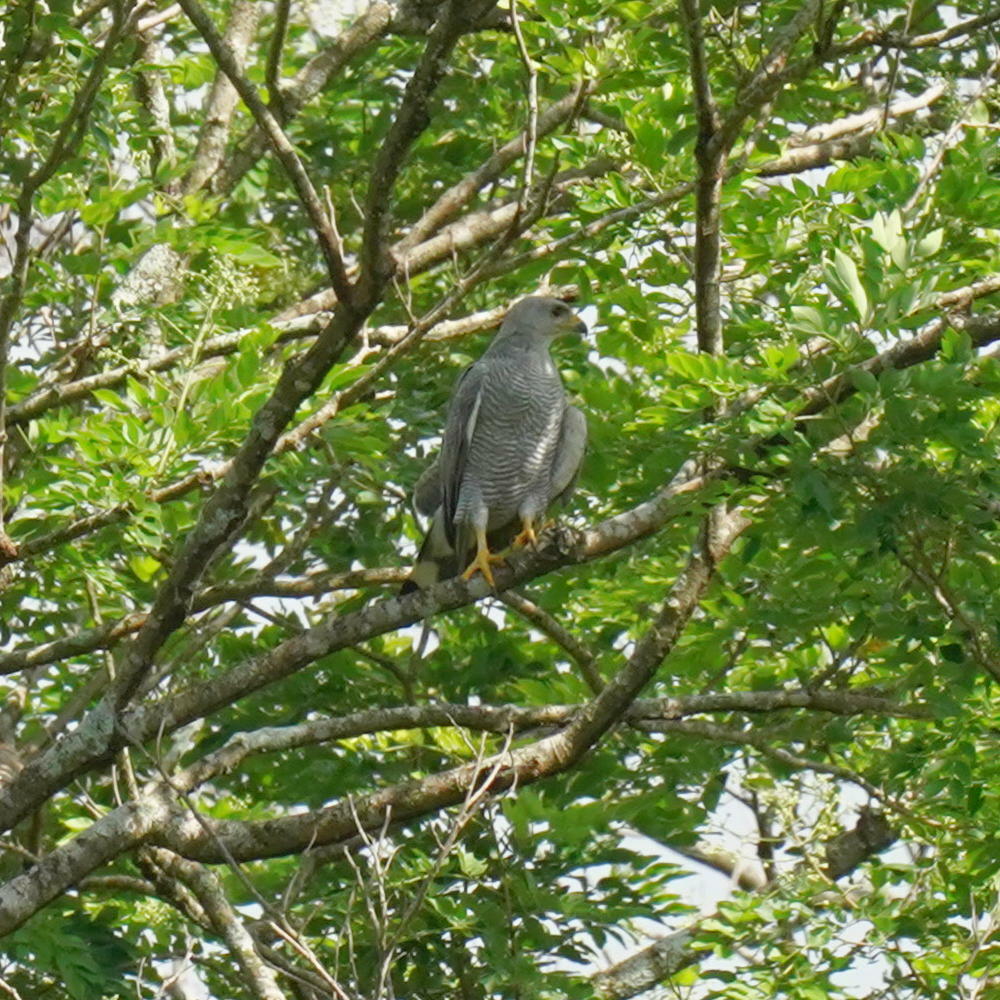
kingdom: Animalia
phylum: Chordata
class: Aves
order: Accipitriformes
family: Accipitridae
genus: Buteo
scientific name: Buteo nitidus
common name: Grey-lined hawk
